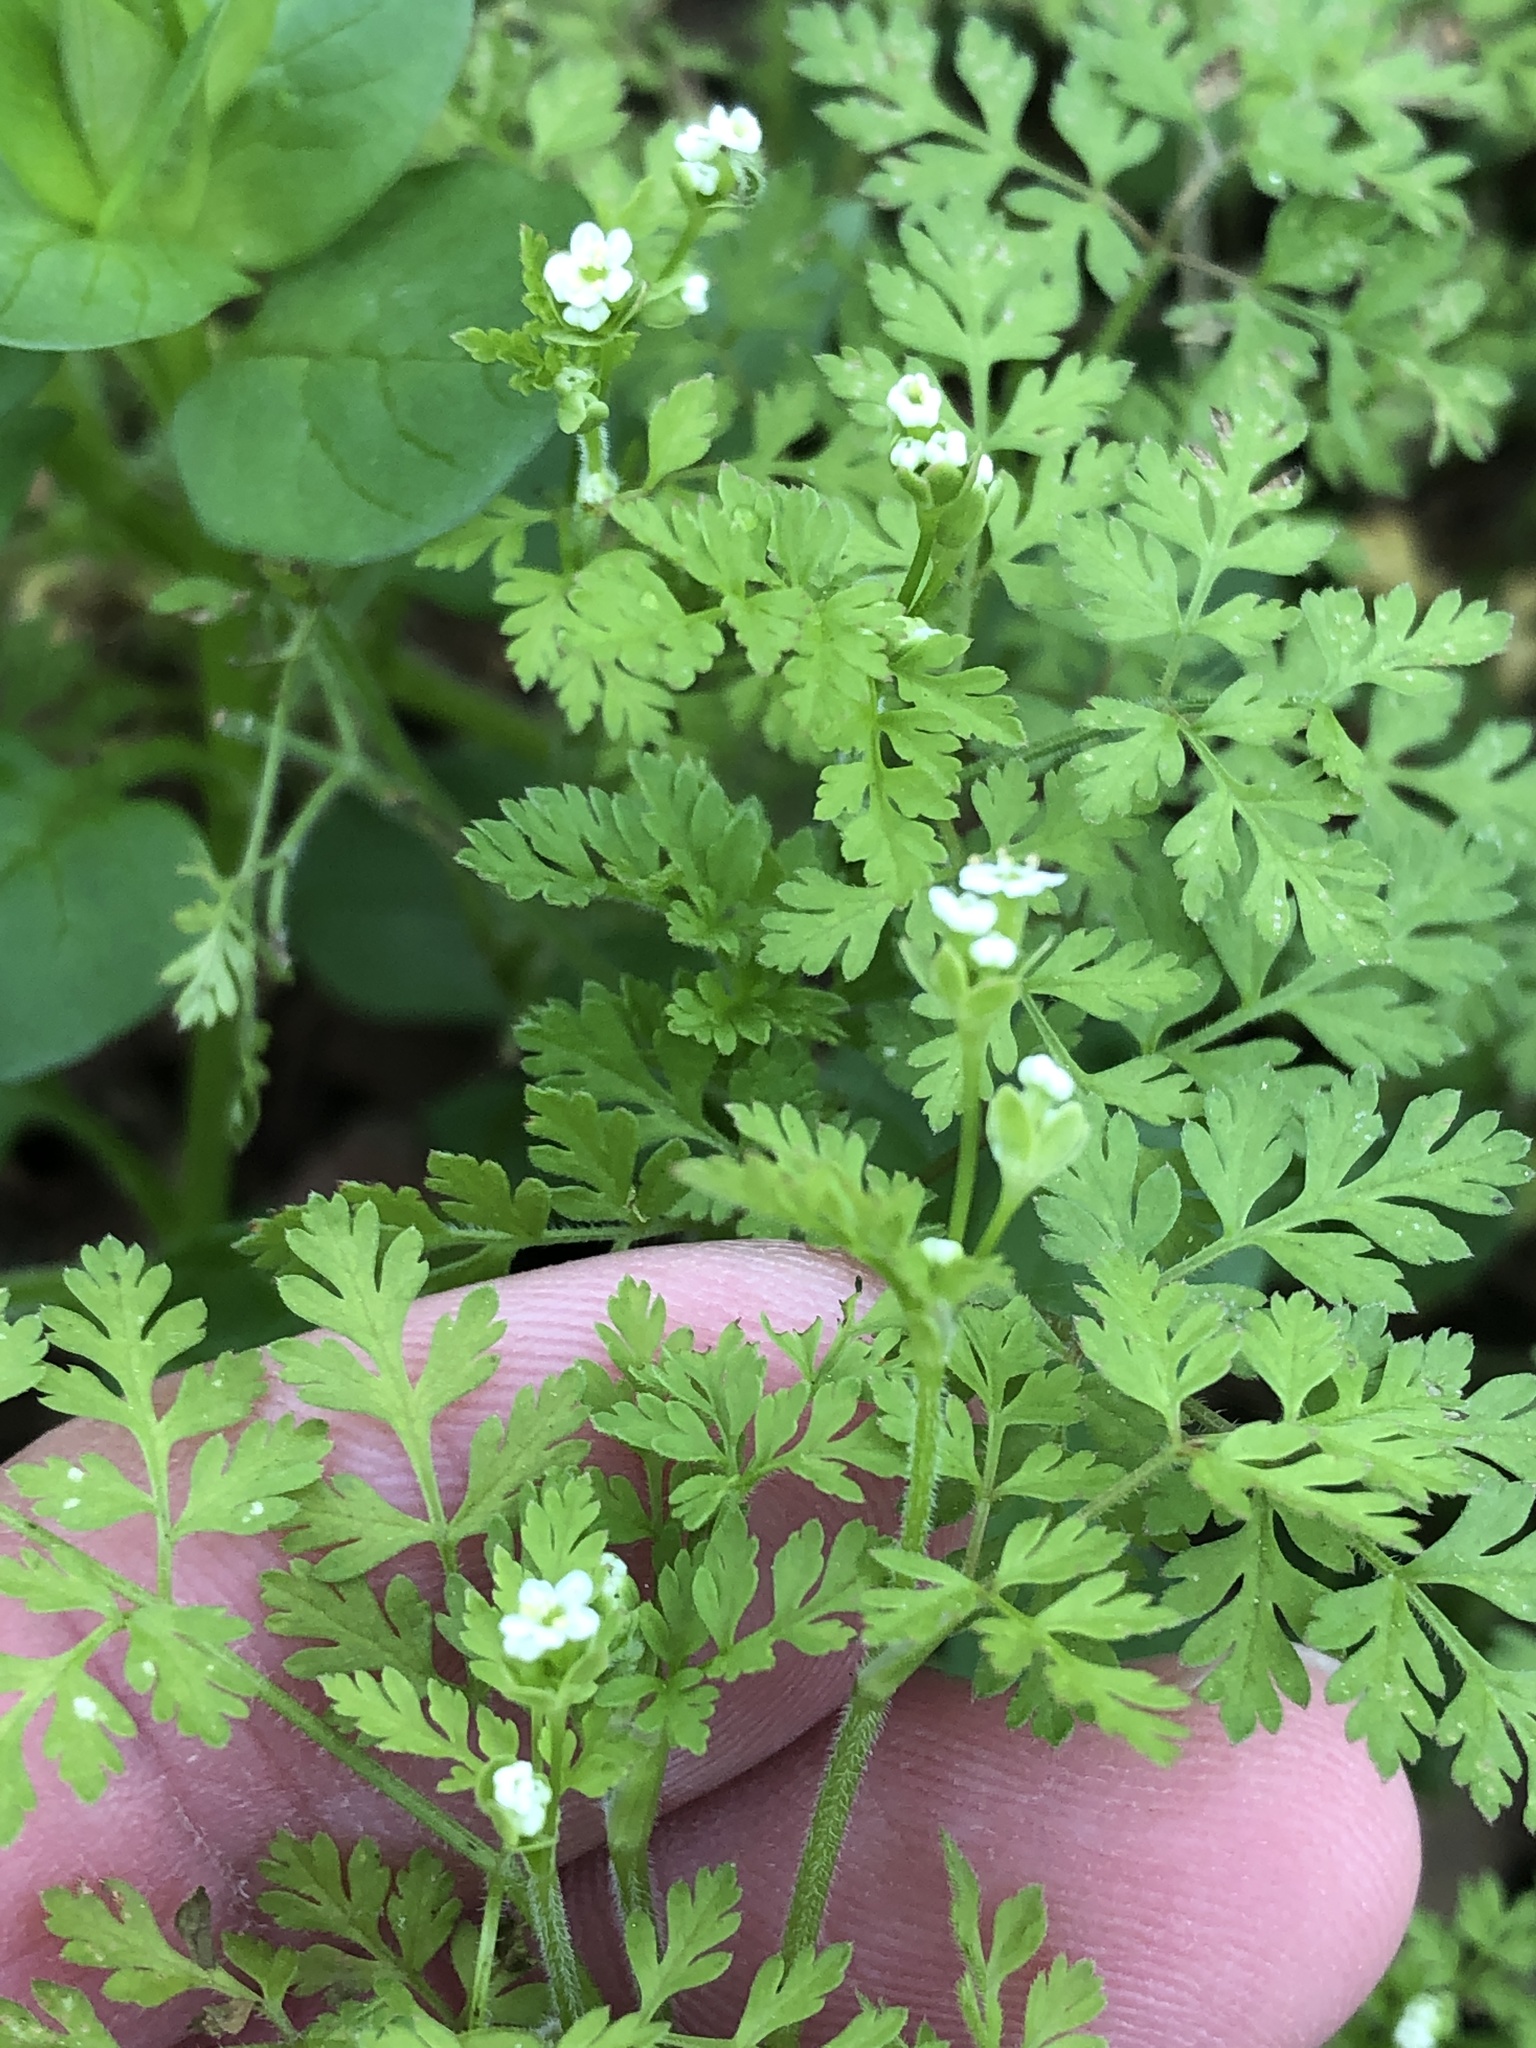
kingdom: Plantae
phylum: Tracheophyta
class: Magnoliopsida
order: Apiales
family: Apiaceae
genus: Chaerophyllum
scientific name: Chaerophyllum tainturieri
